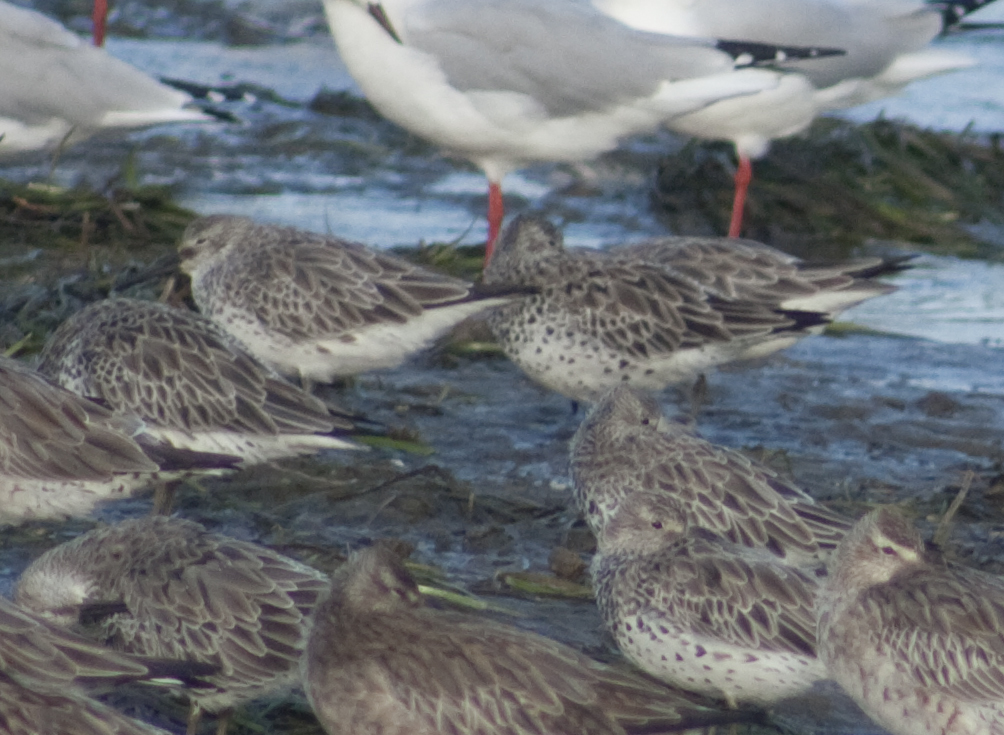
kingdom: Animalia
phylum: Chordata
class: Aves
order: Charadriiformes
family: Scolopacidae
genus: Calidris
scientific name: Calidris tenuirostris
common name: Great knot
